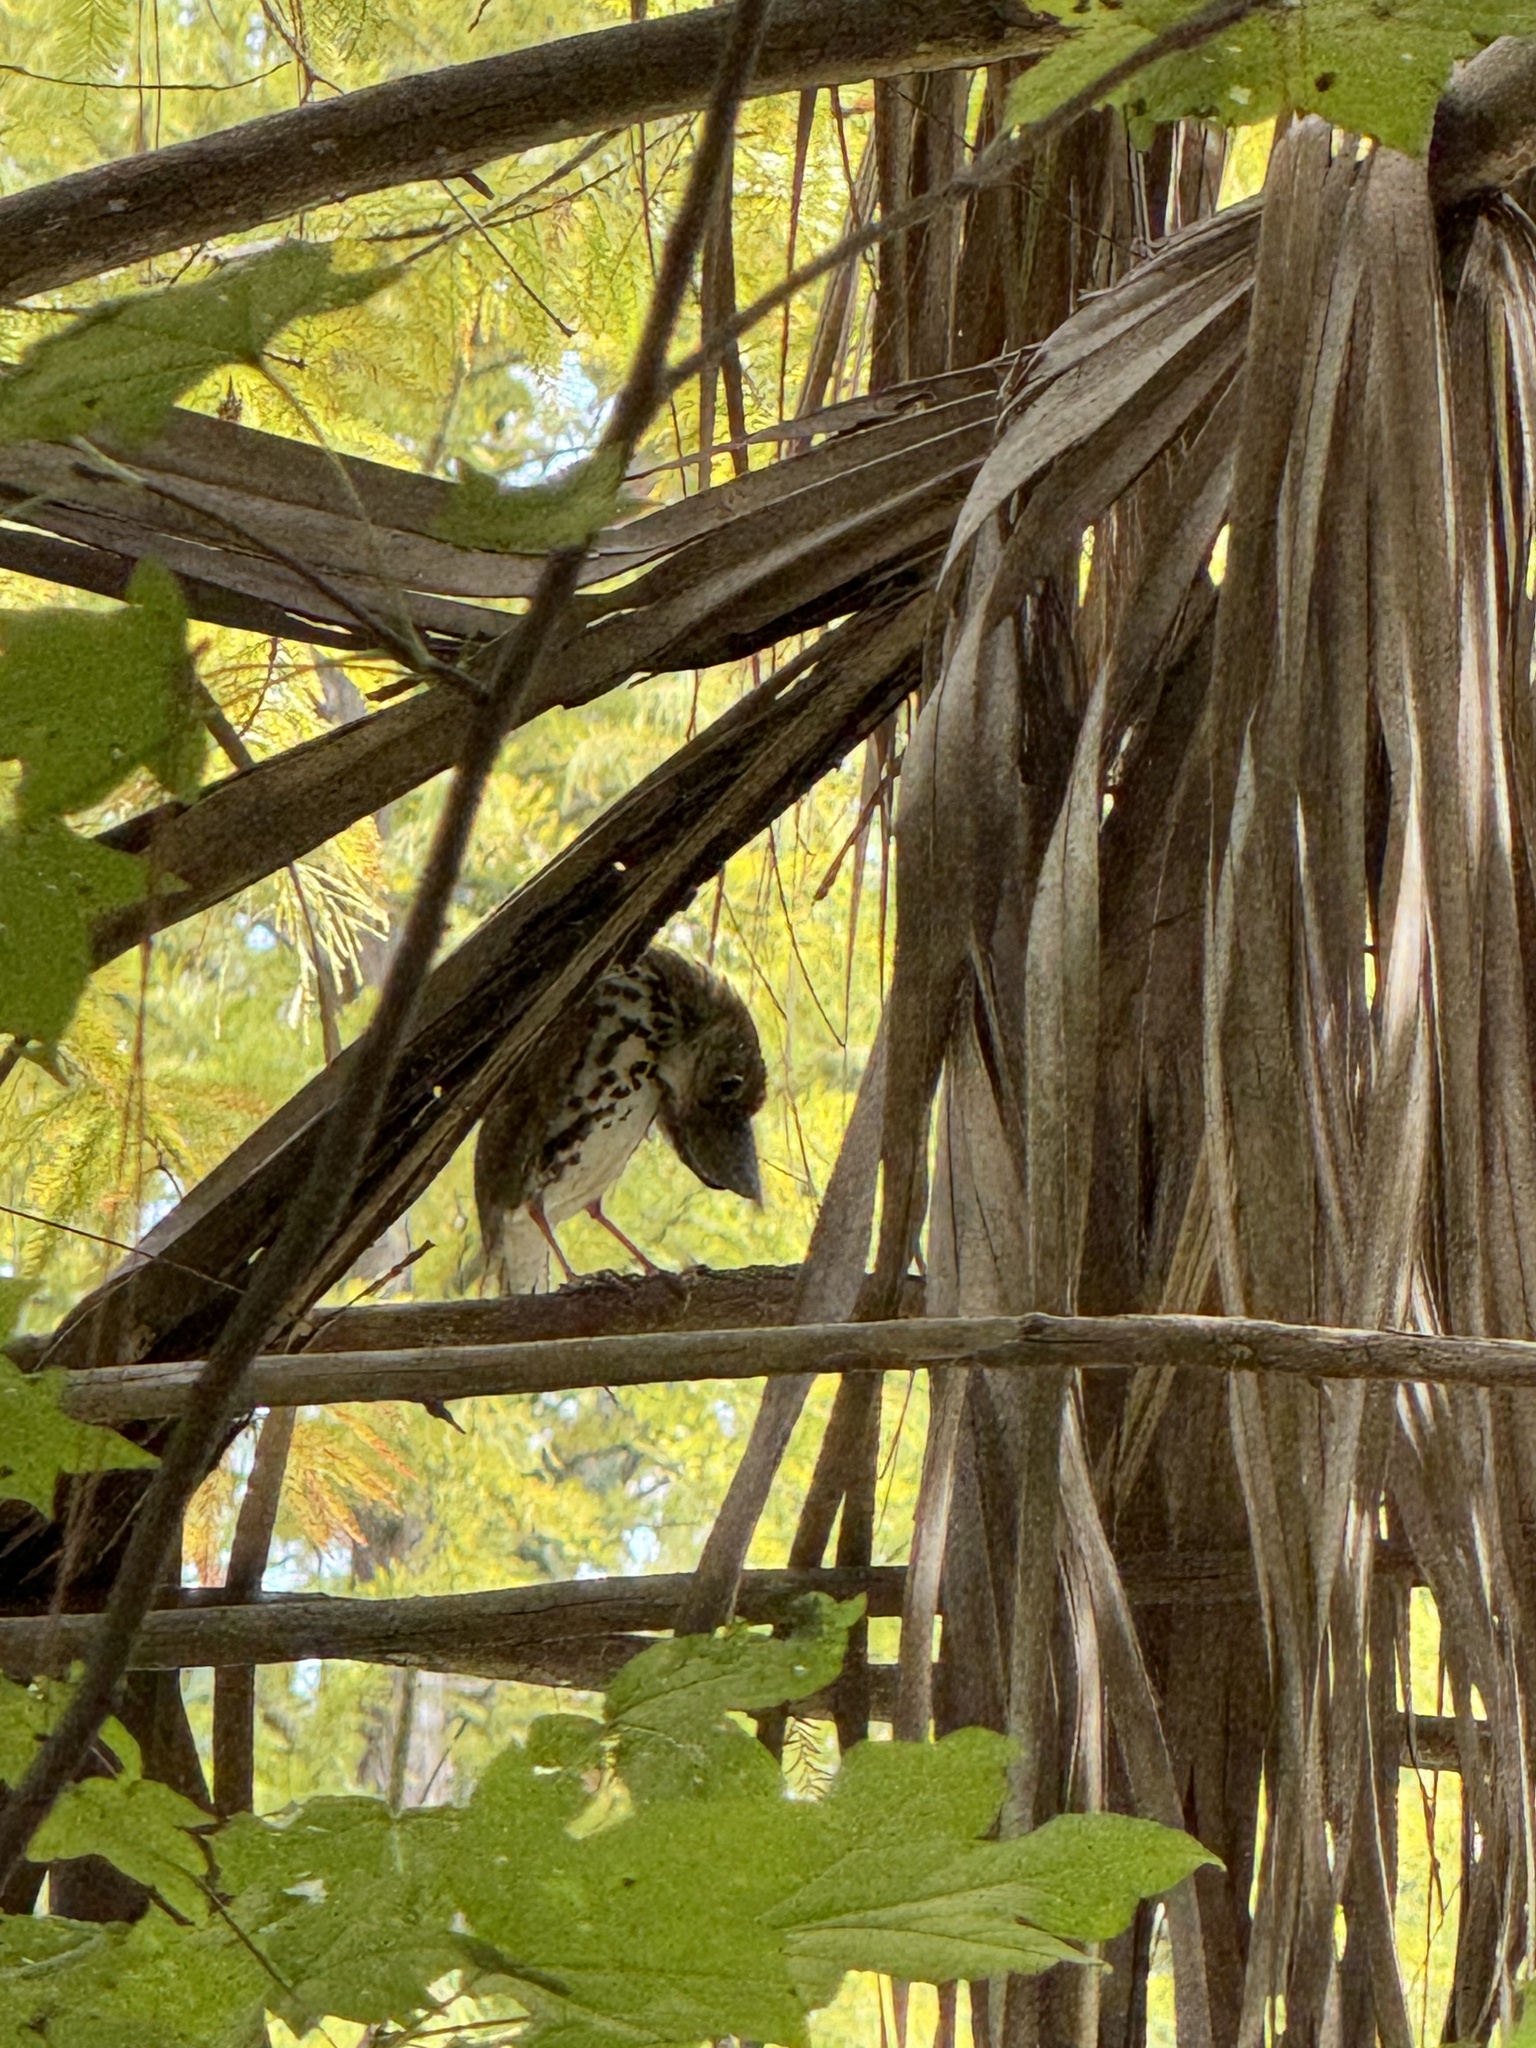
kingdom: Animalia
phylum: Chordata
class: Aves
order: Passeriformes
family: Turdidae
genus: Hylocichla
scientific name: Hylocichla mustelina
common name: Wood thrush
